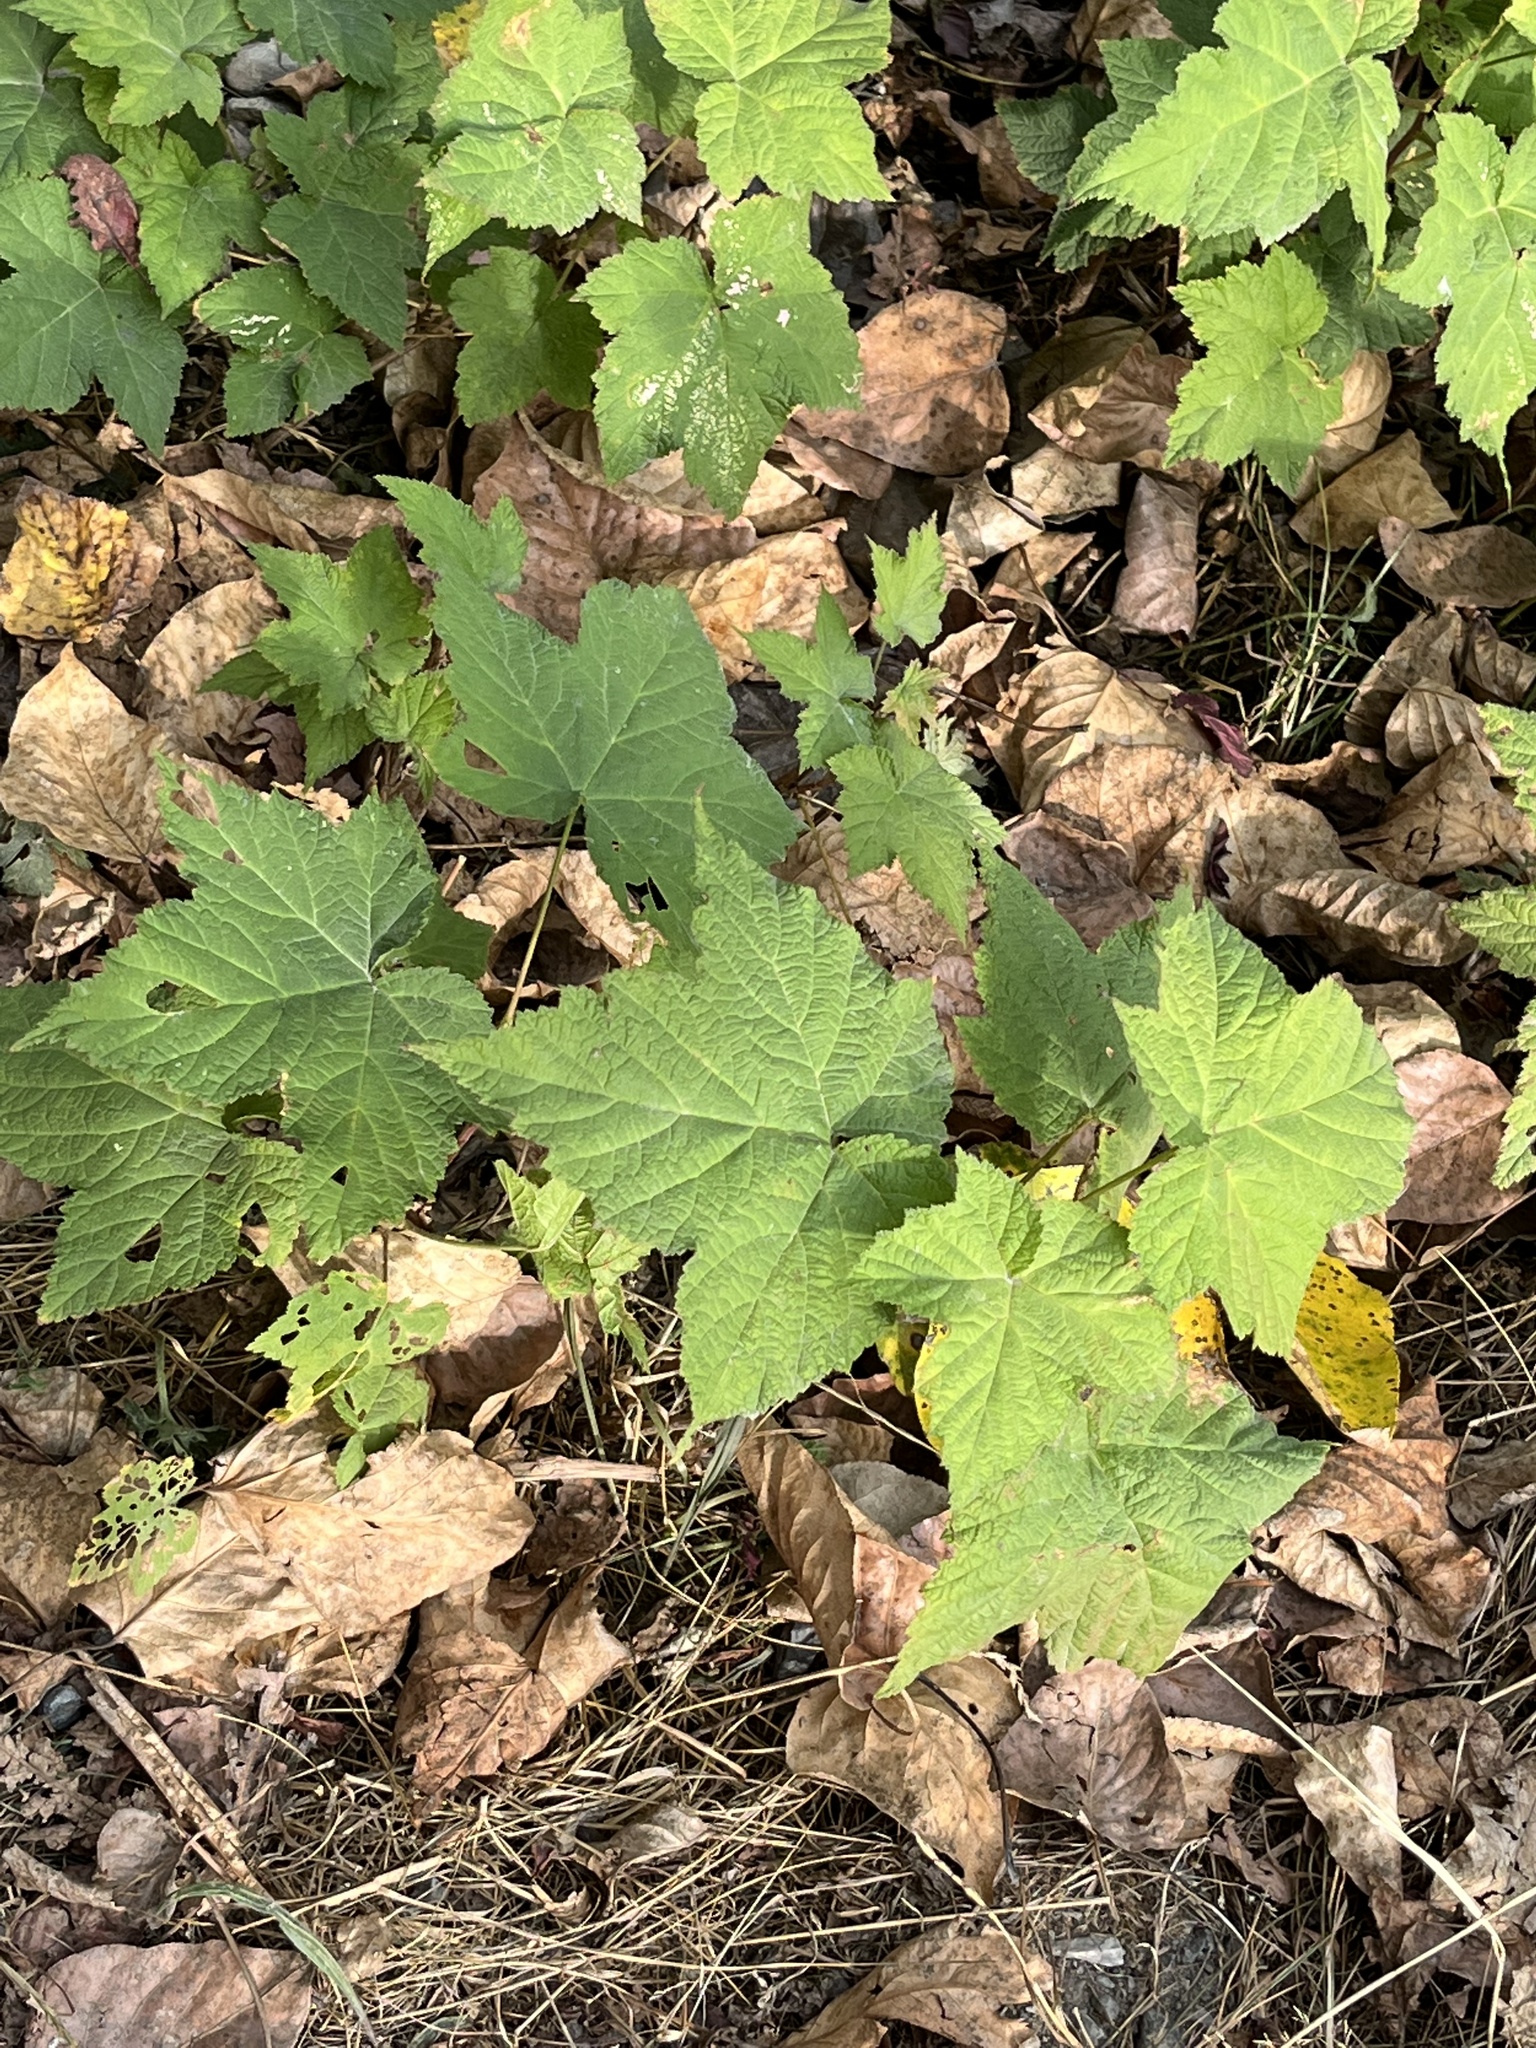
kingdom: Plantae
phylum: Tracheophyta
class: Magnoliopsida
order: Rosales
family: Rosaceae
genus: Rubus
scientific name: Rubus parviflorus
